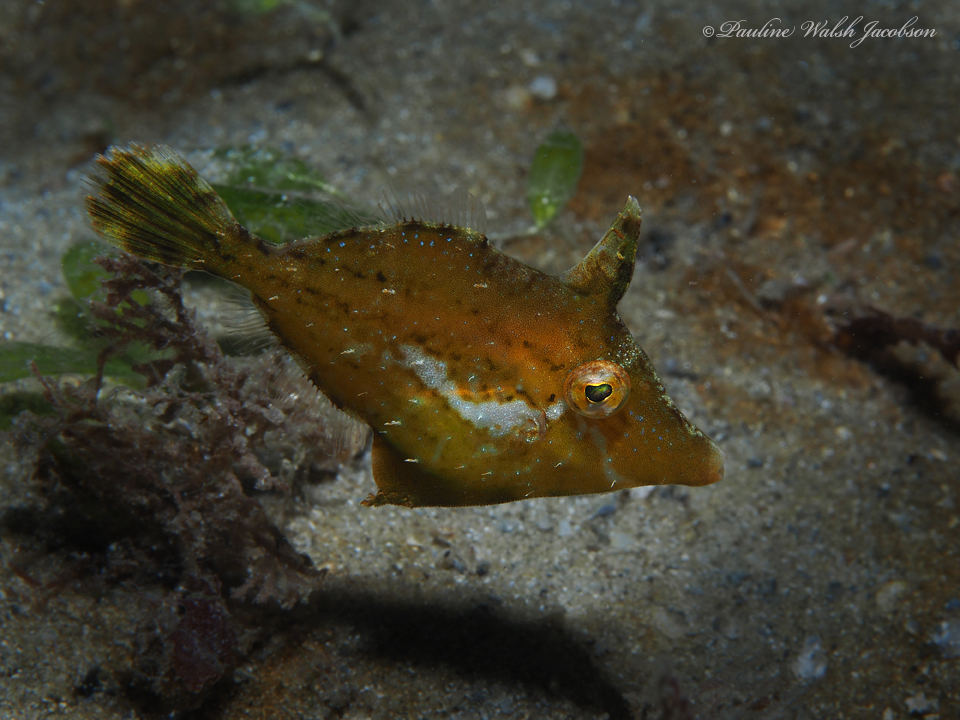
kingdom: Animalia
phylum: Chordata
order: Tetraodontiformes
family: Monacanthidae
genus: Monacanthus
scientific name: Monacanthus ciliatus
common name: Fringed filefish
